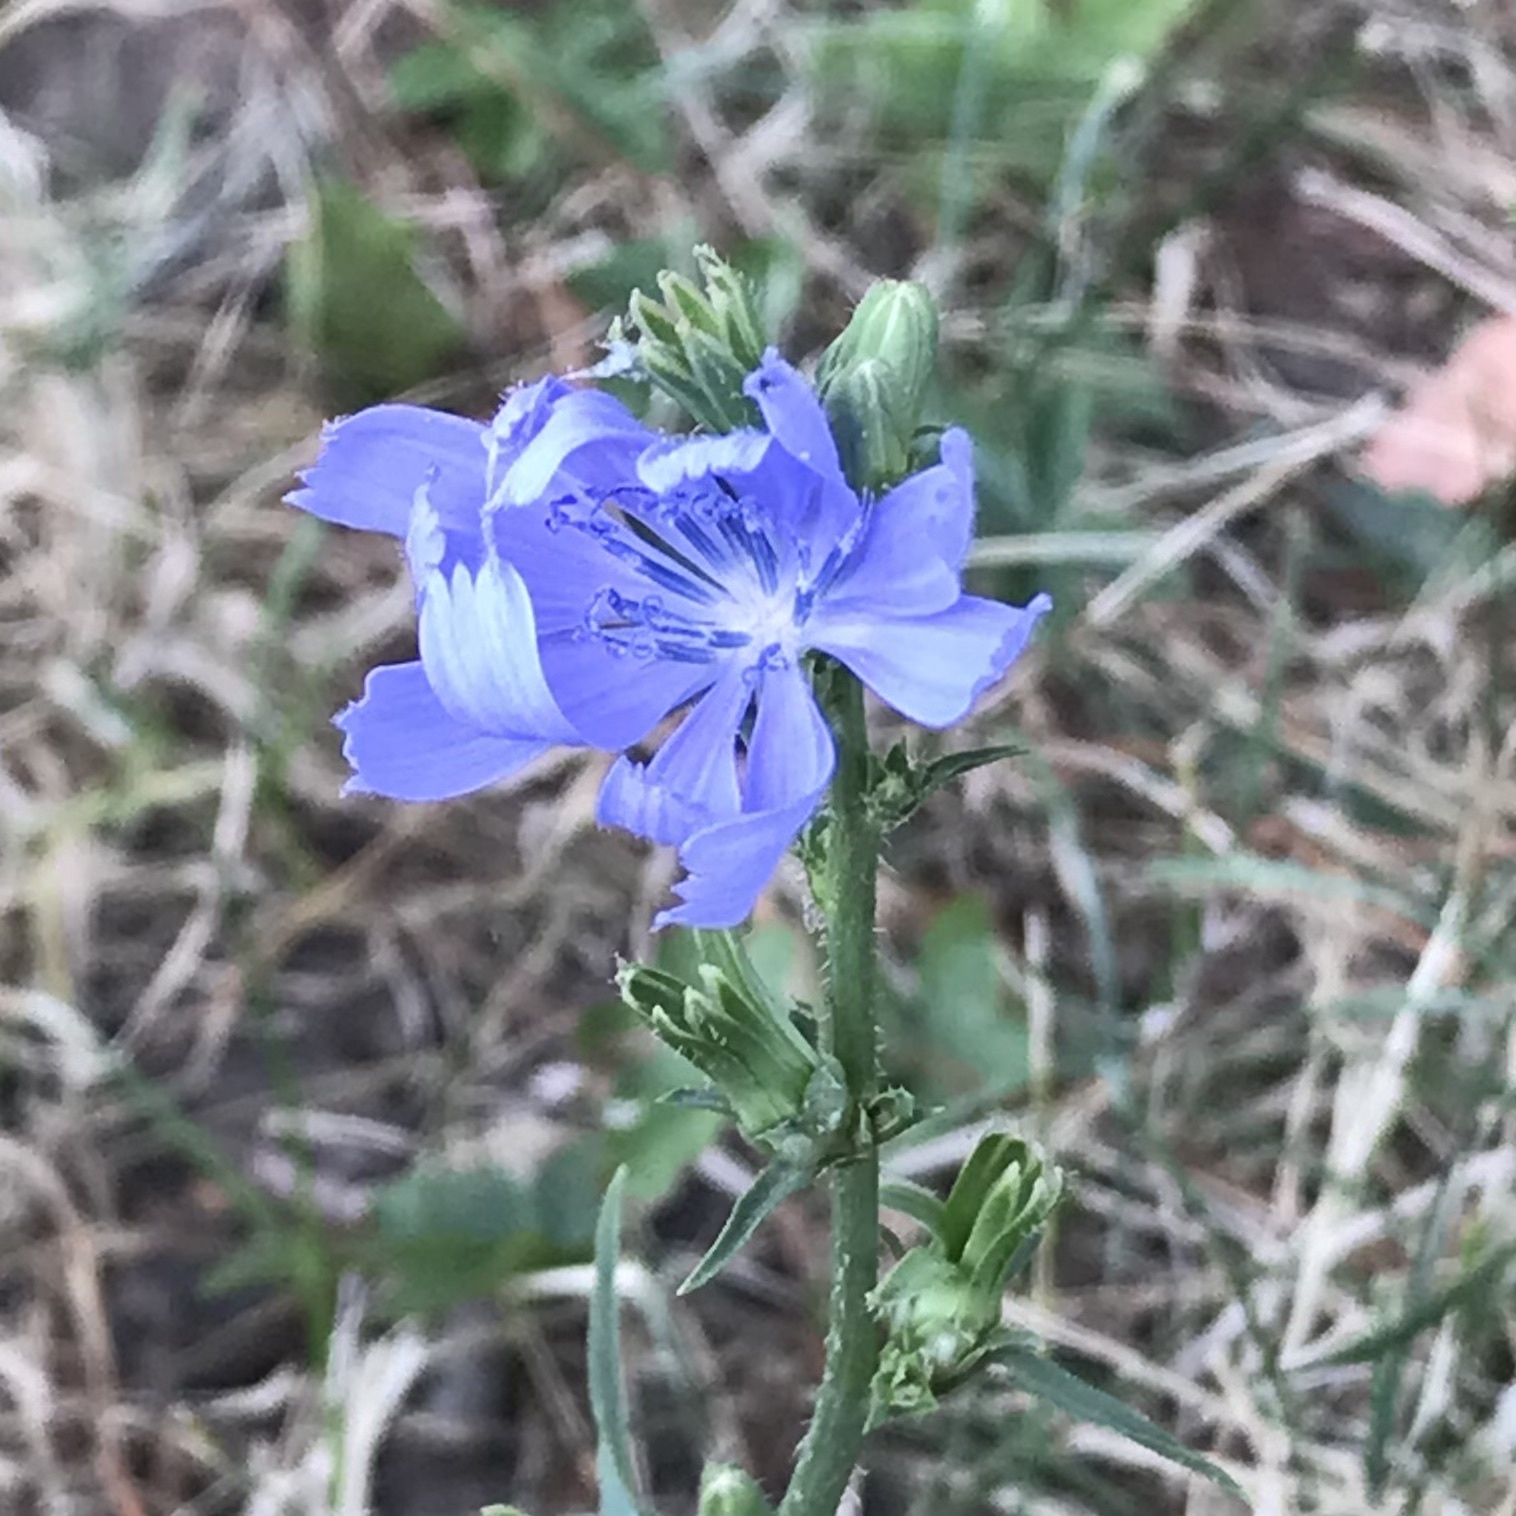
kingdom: Plantae
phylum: Tracheophyta
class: Magnoliopsida
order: Asterales
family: Asteraceae
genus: Cichorium
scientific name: Cichorium intybus
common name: Chicory
